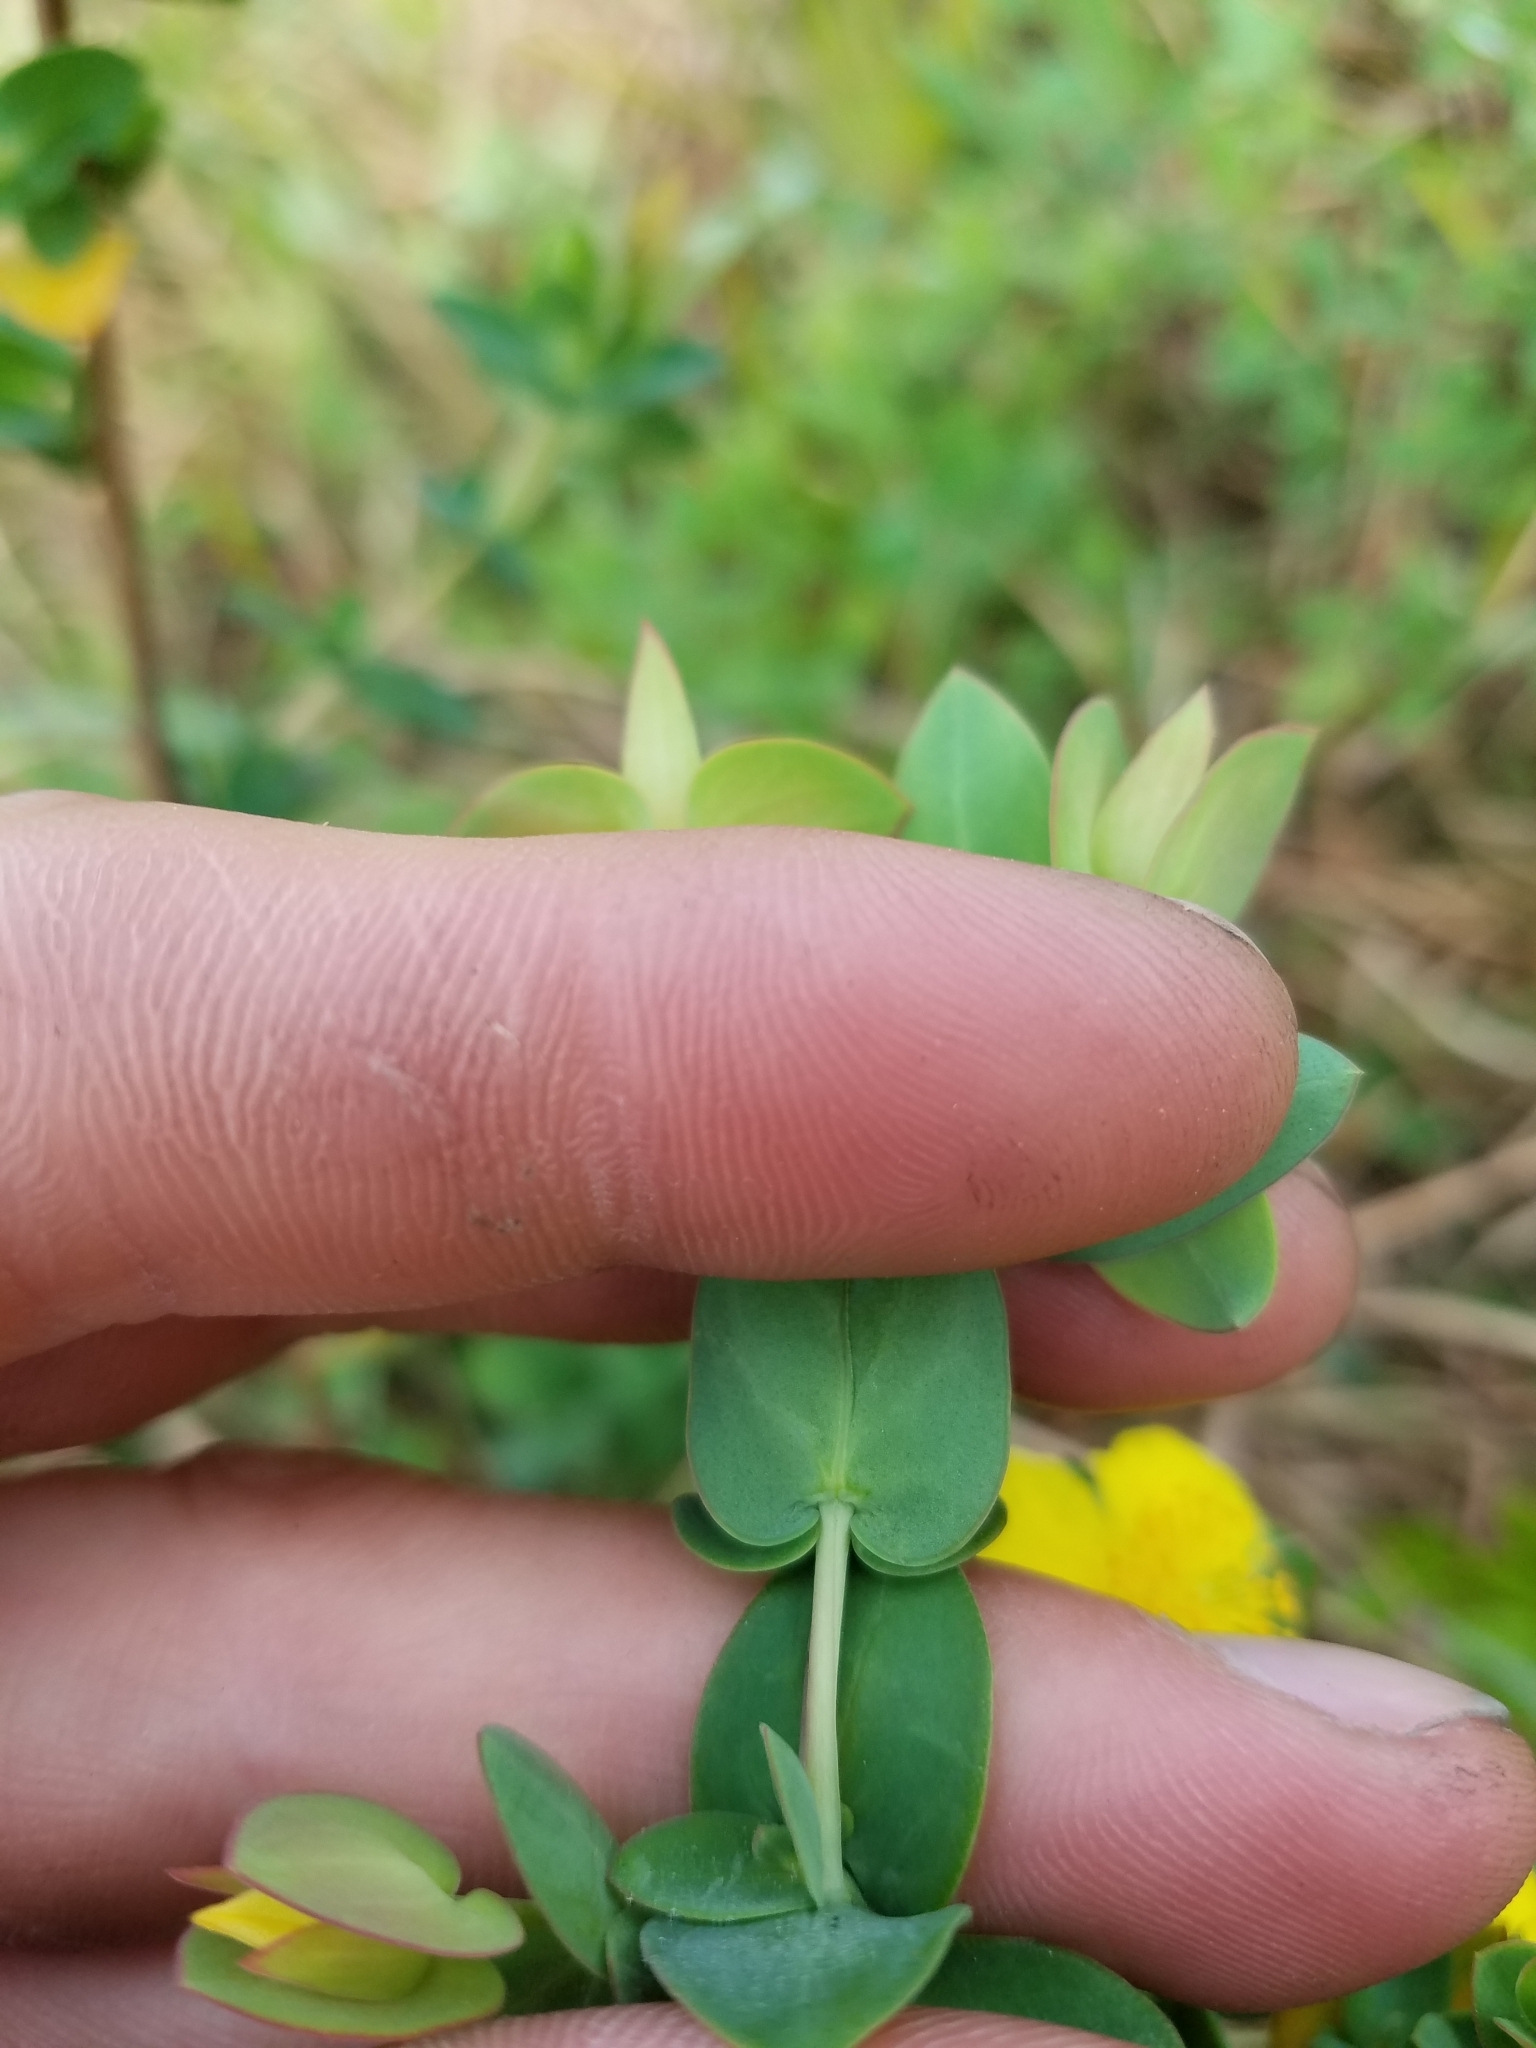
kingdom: Plantae
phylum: Tracheophyta
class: Magnoliopsida
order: Malpighiales
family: Hypericaceae
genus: Hypericum
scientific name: Hypericum tetrapetalum
